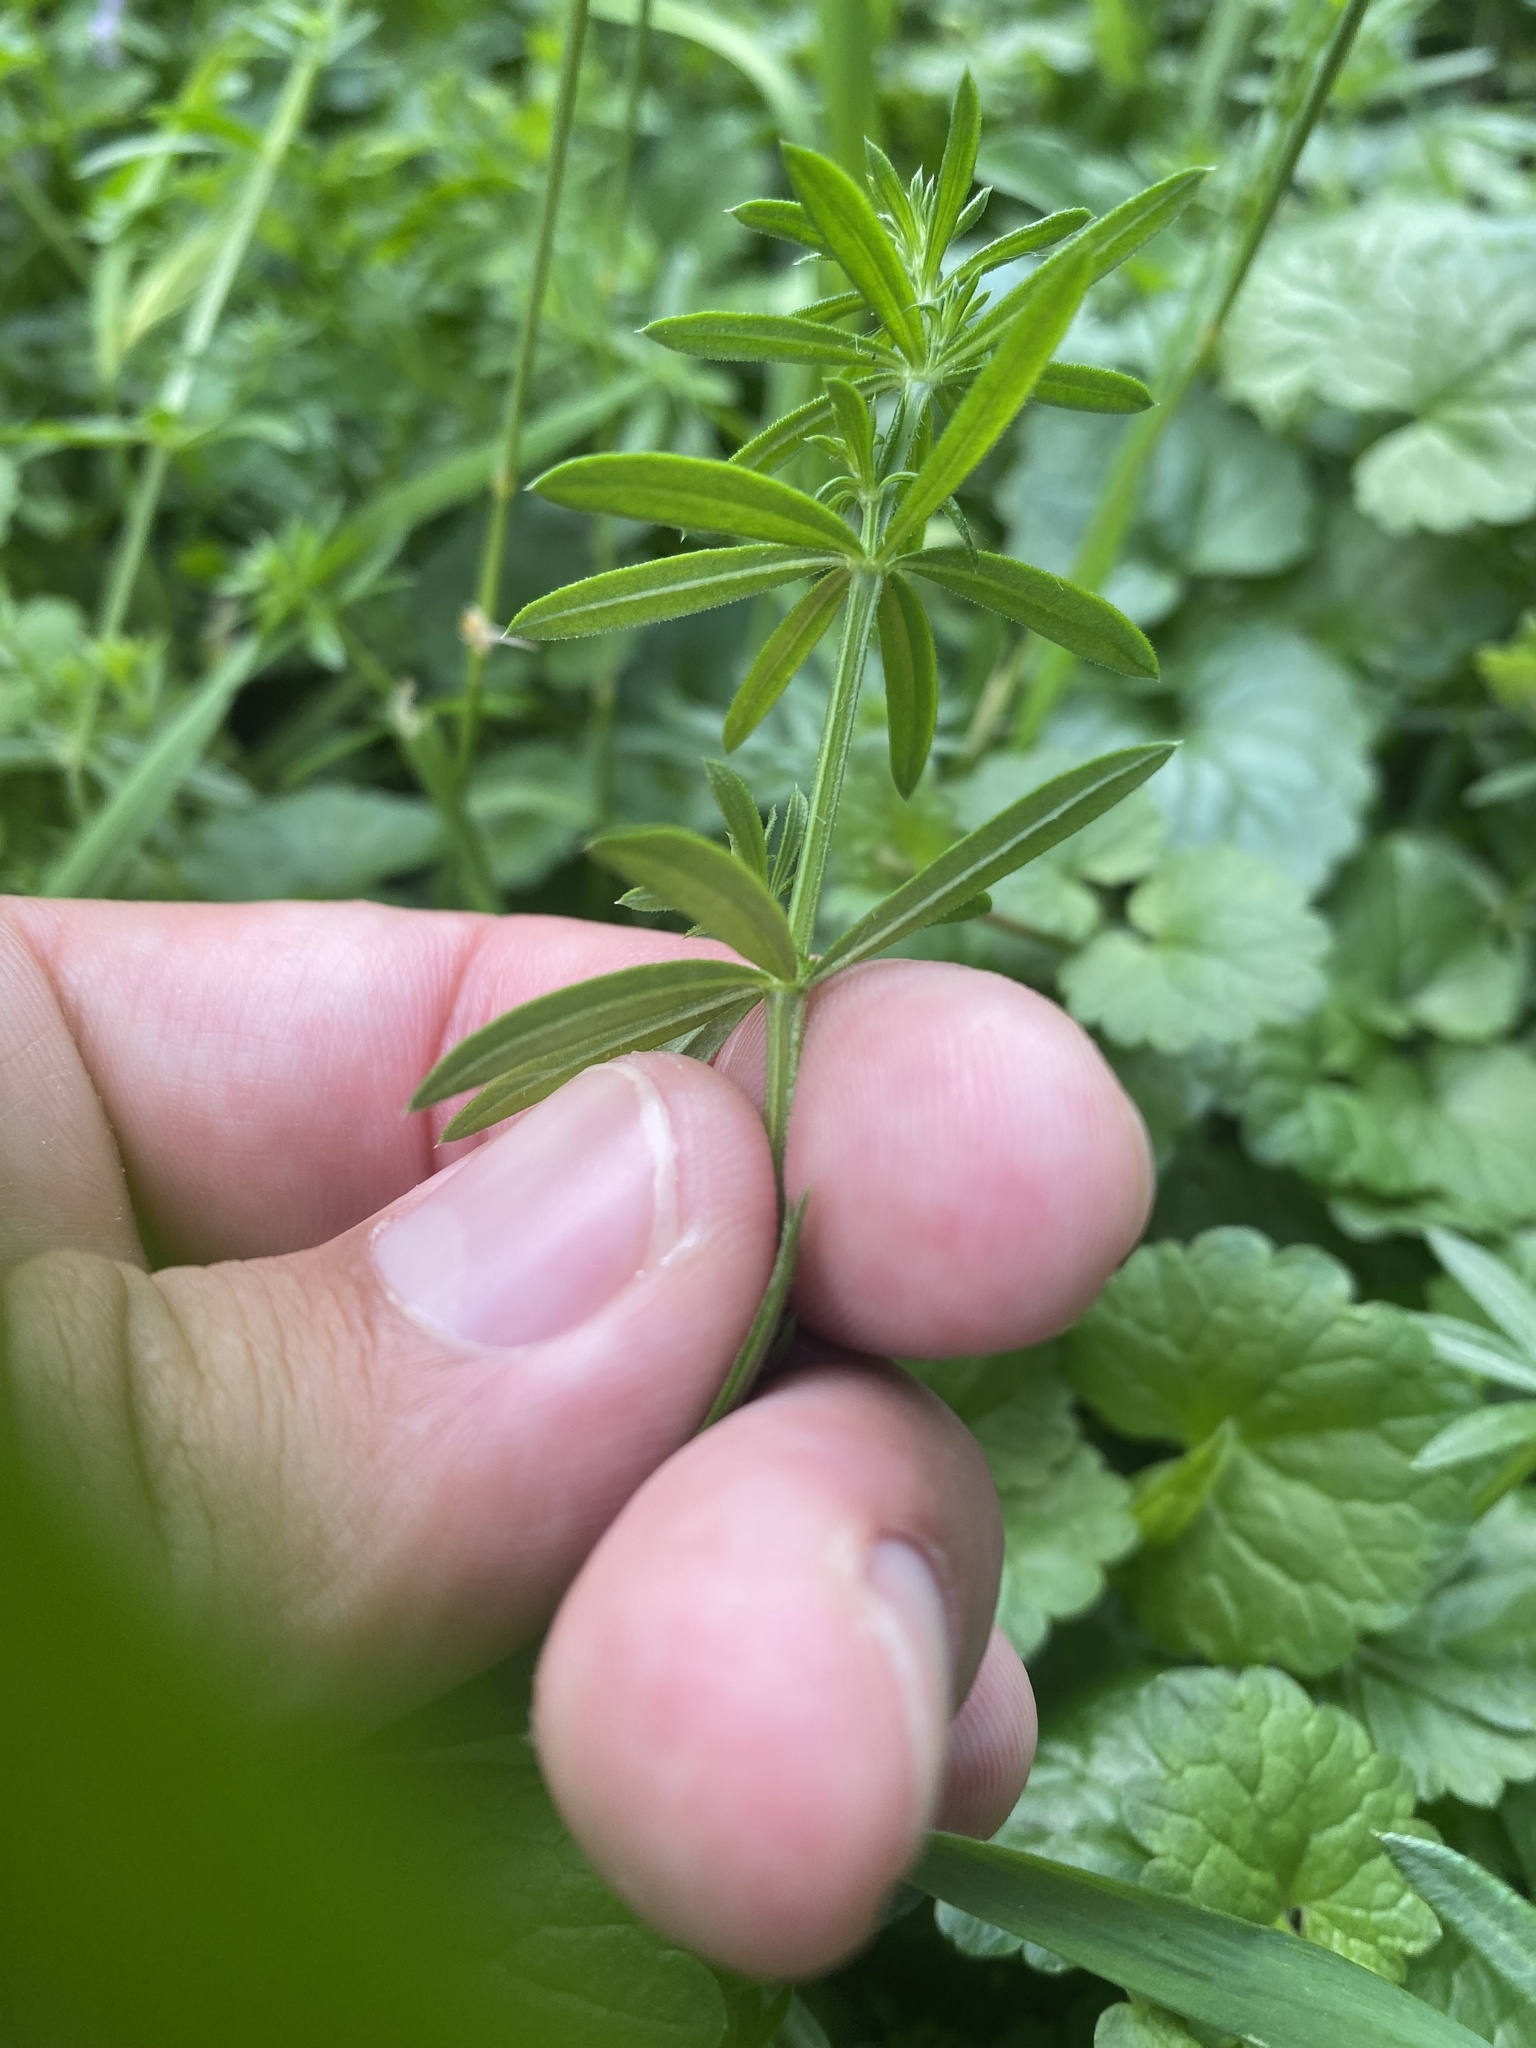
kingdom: Plantae
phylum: Tracheophyta
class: Magnoliopsida
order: Gentianales
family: Rubiaceae
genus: Galium
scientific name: Galium humifusum
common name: Spreading bedstraw
